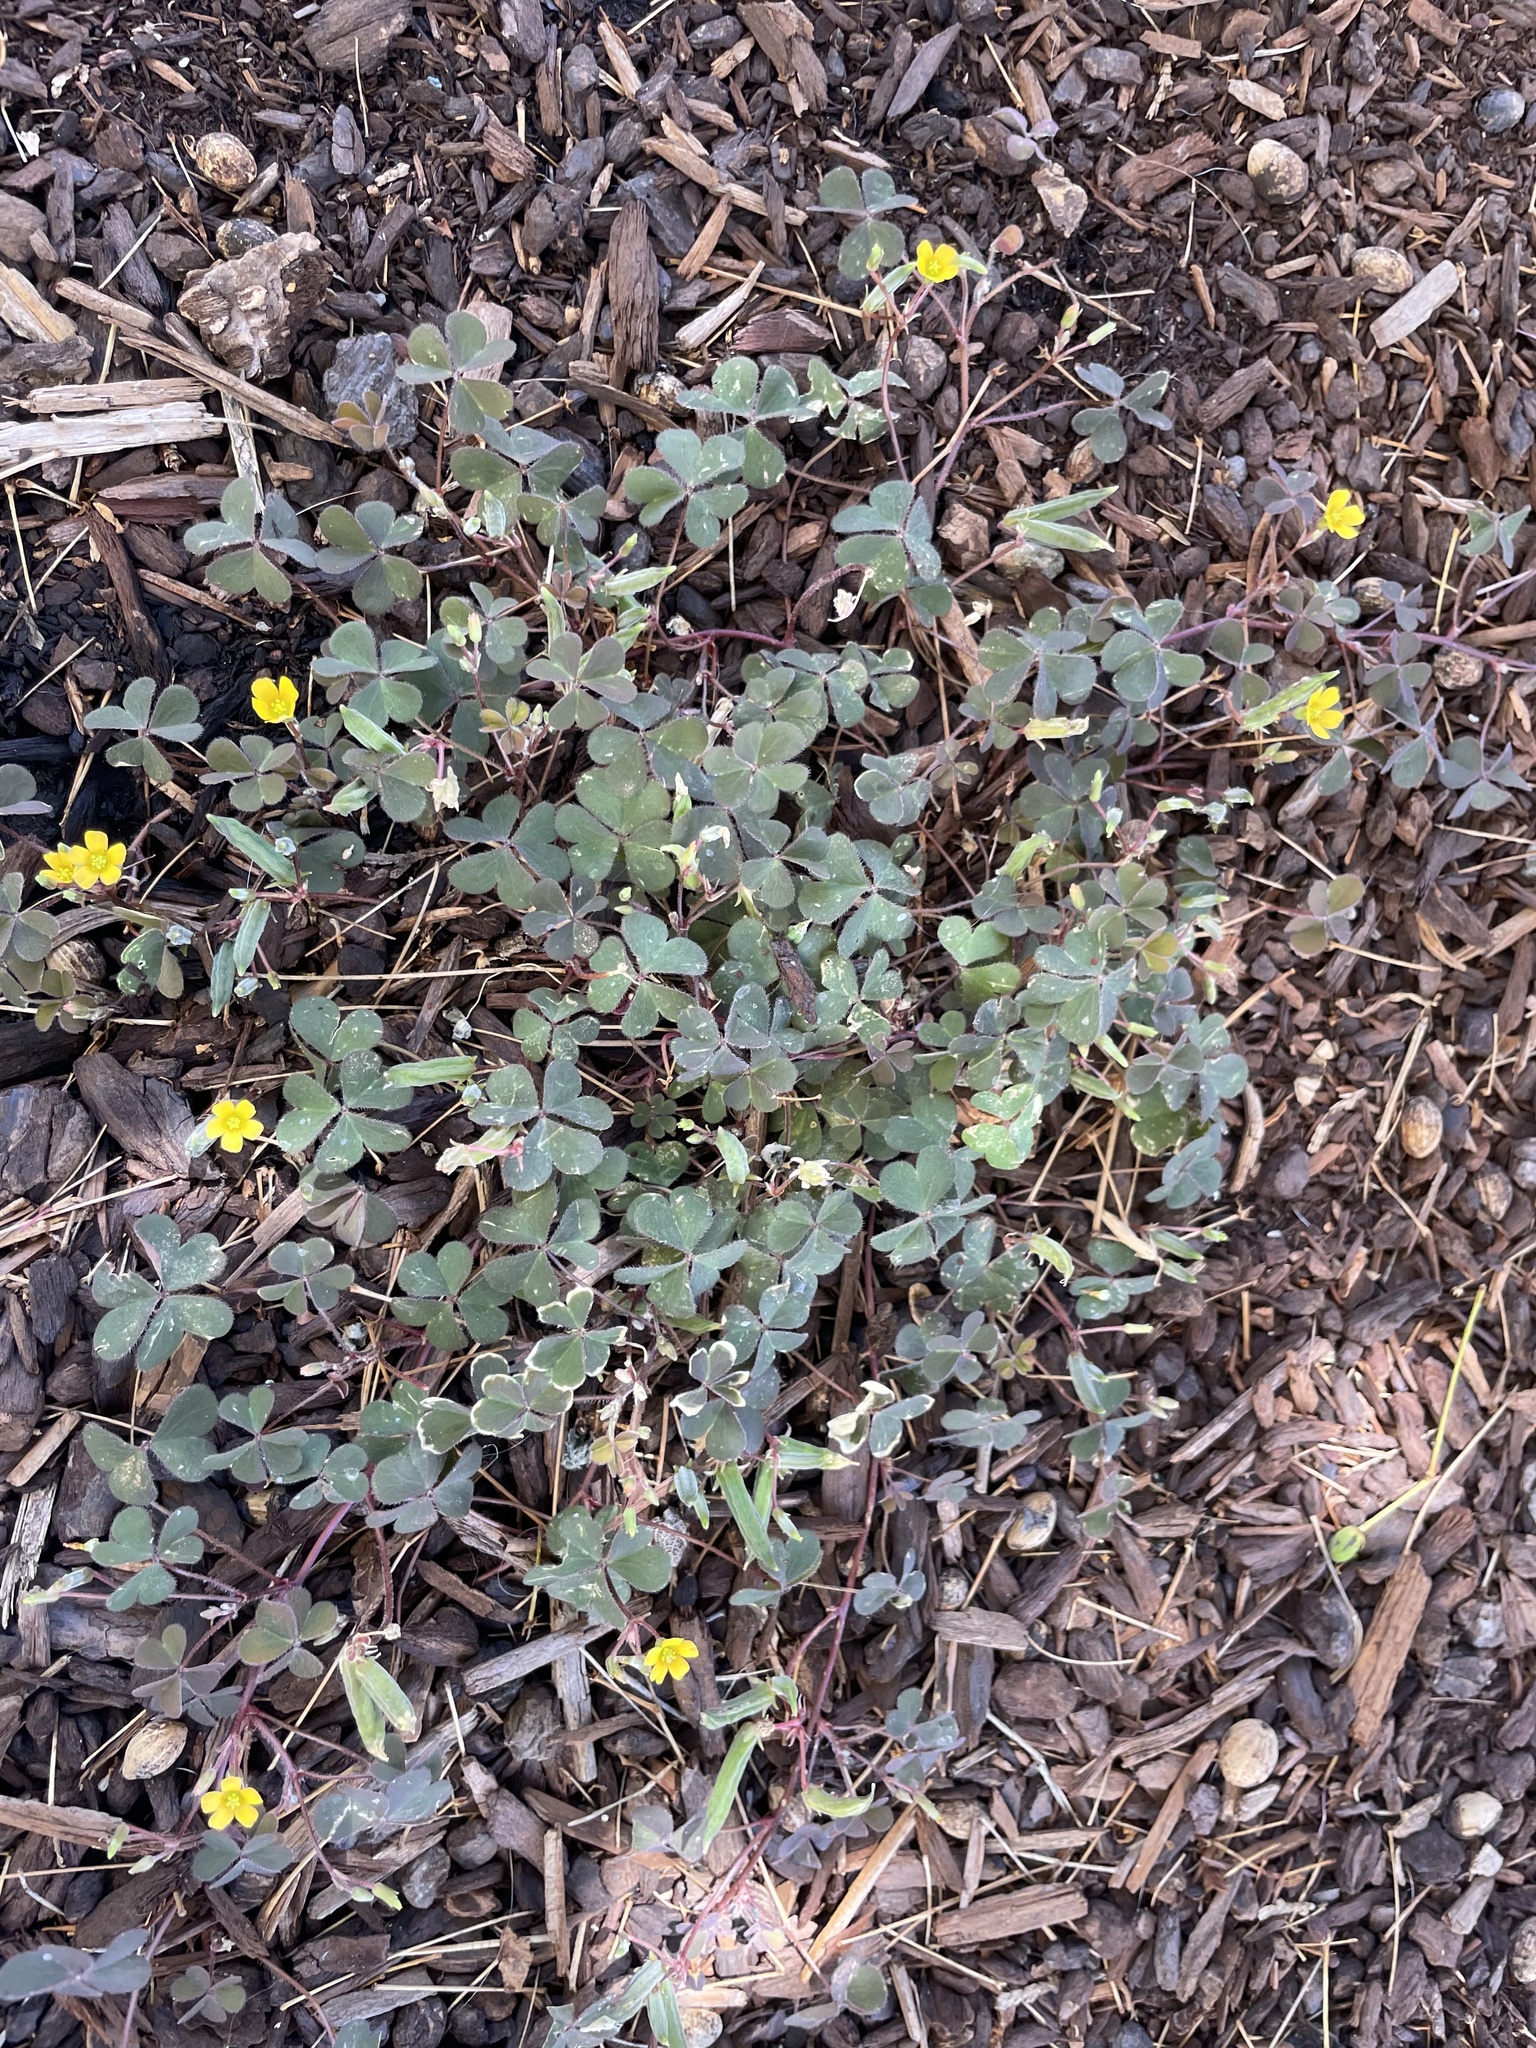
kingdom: Plantae
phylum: Tracheophyta
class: Magnoliopsida
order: Oxalidales
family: Oxalidaceae
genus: Oxalis
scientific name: Oxalis corniculata
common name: Procumbent yellow-sorrel
